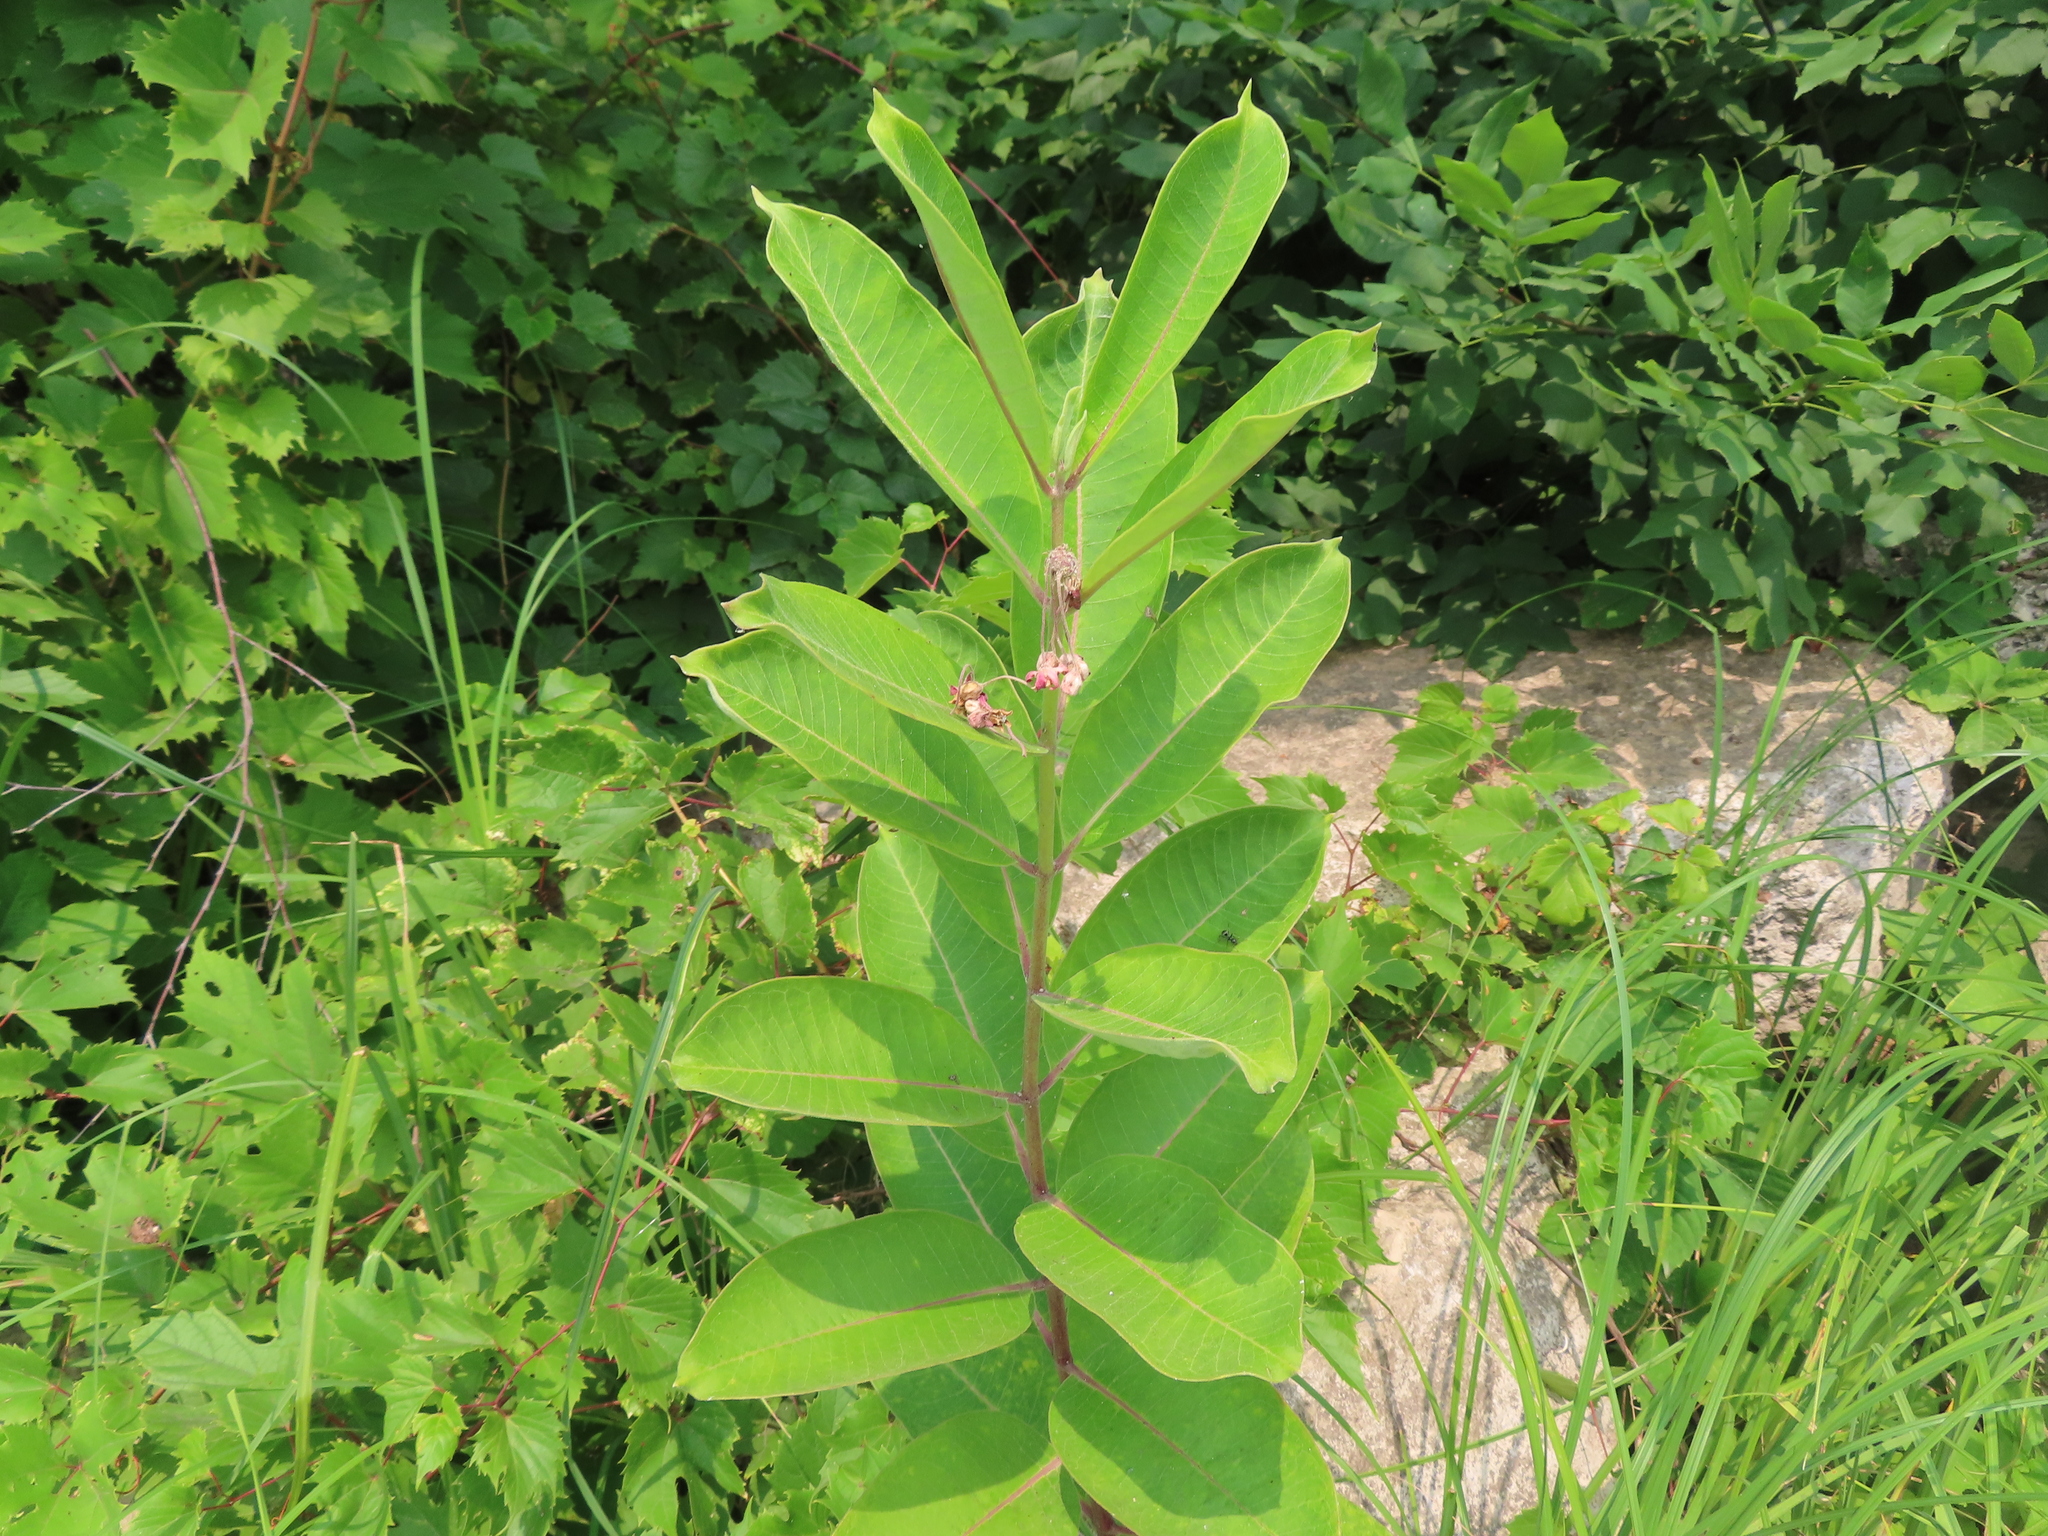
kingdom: Plantae
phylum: Tracheophyta
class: Magnoliopsida
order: Gentianales
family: Apocynaceae
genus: Asclepias
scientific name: Asclepias syriaca
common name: Common milkweed
